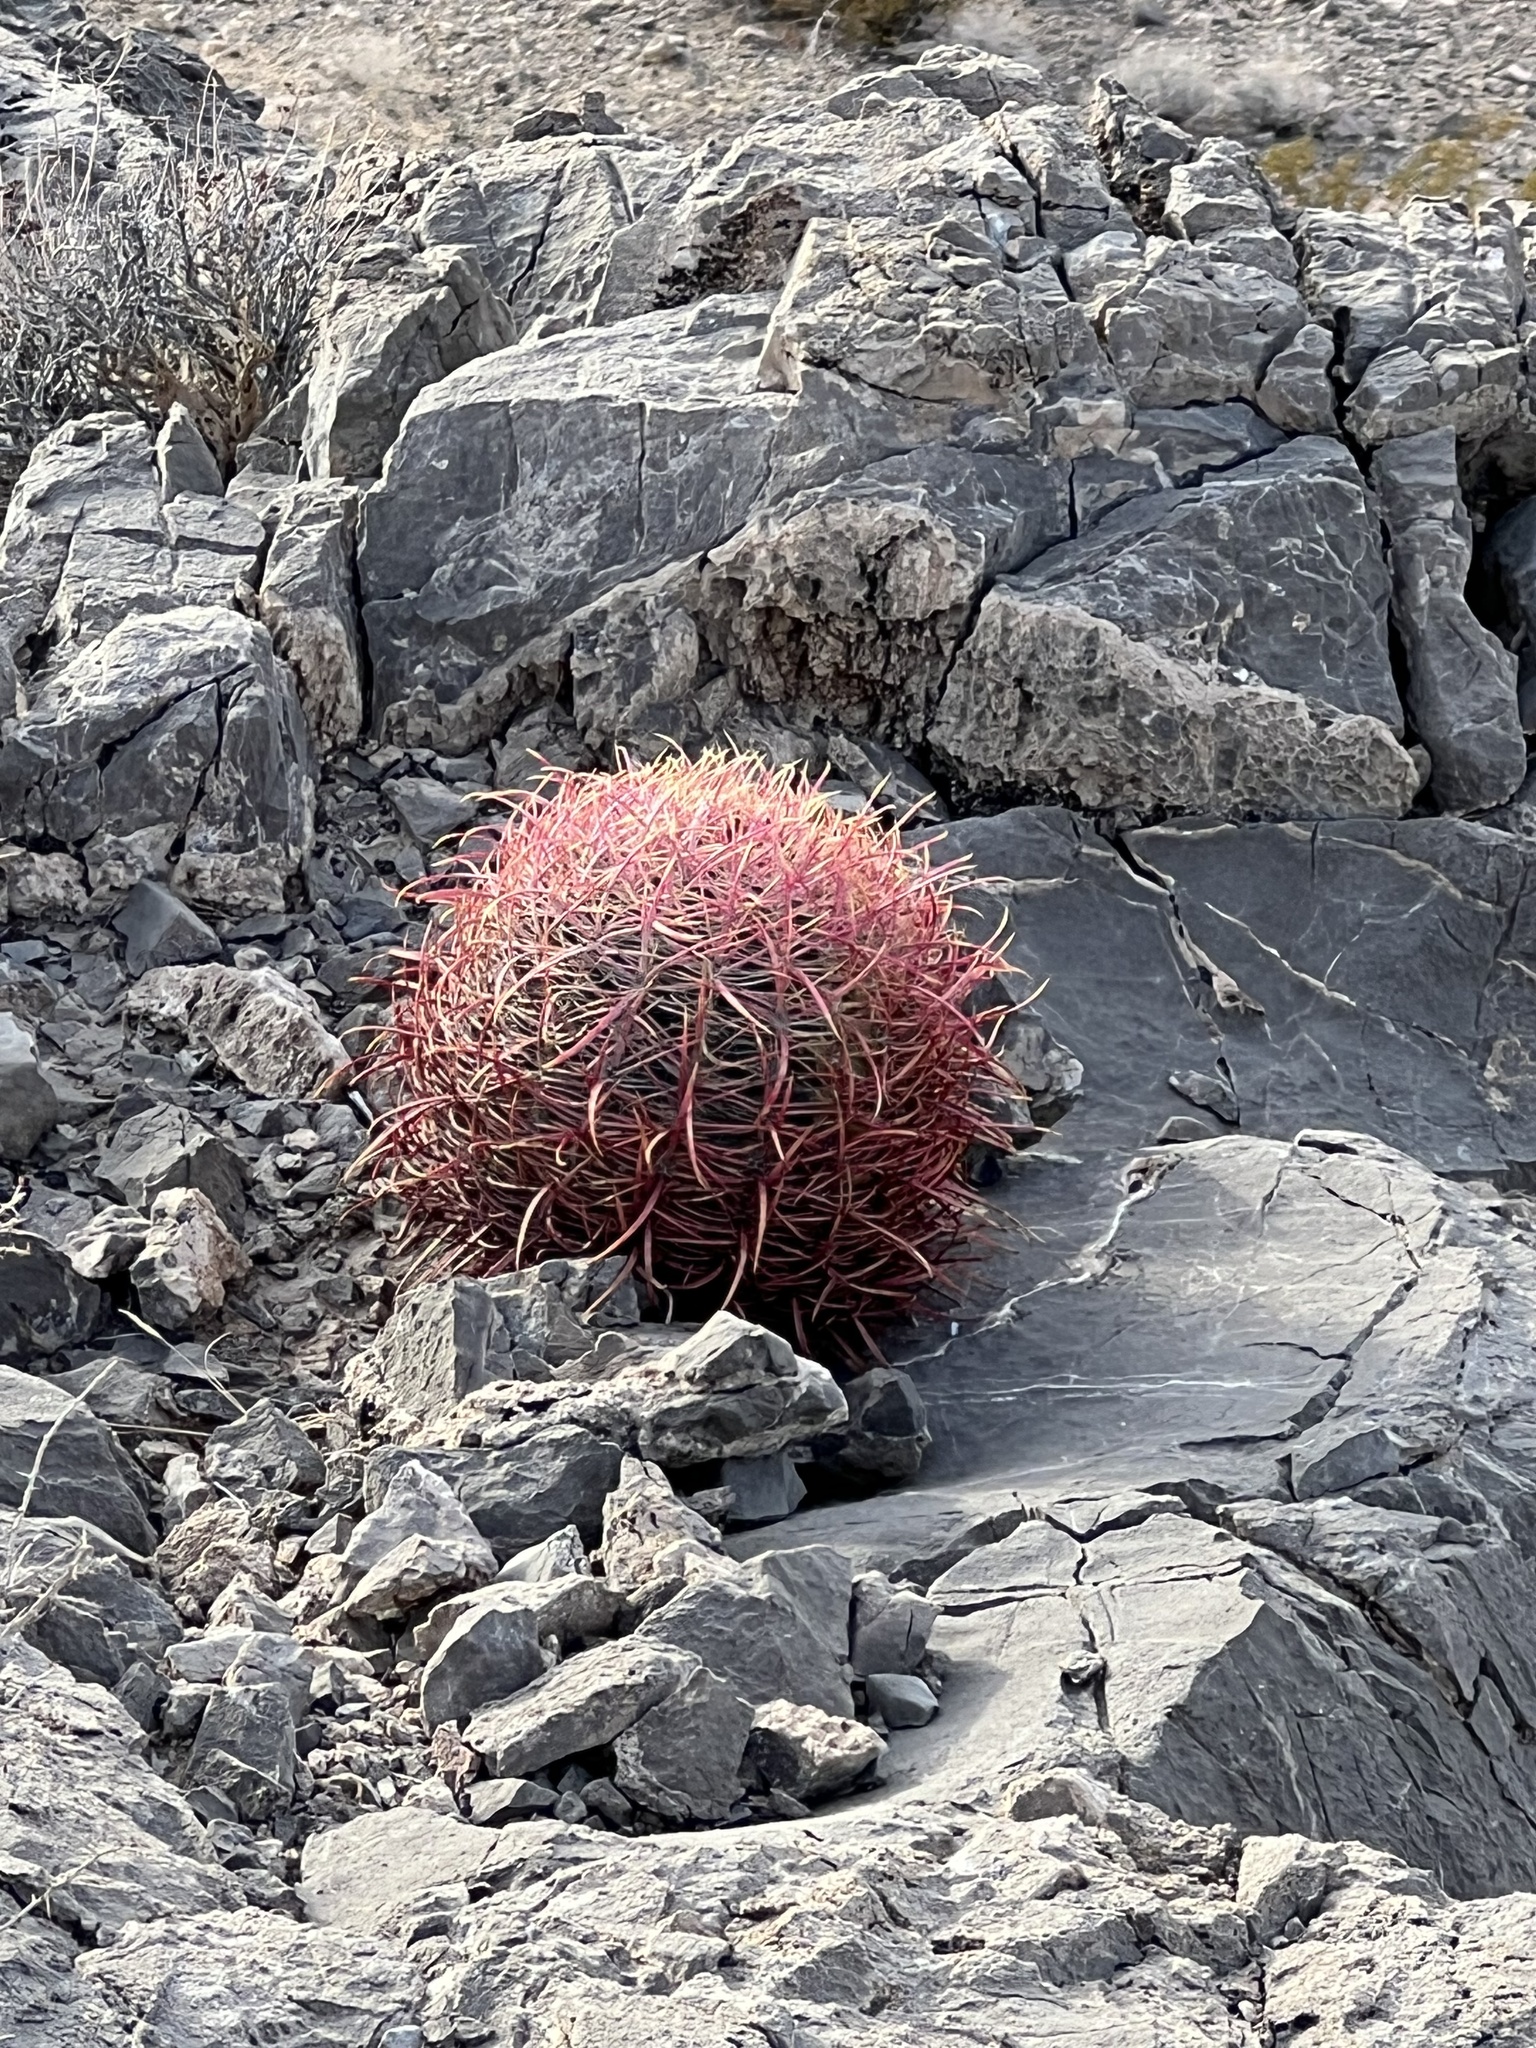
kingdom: Plantae
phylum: Tracheophyta
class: Magnoliopsida
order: Caryophyllales
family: Cactaceae
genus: Ferocactus
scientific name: Ferocactus cylindraceus
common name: California barrel cactus
